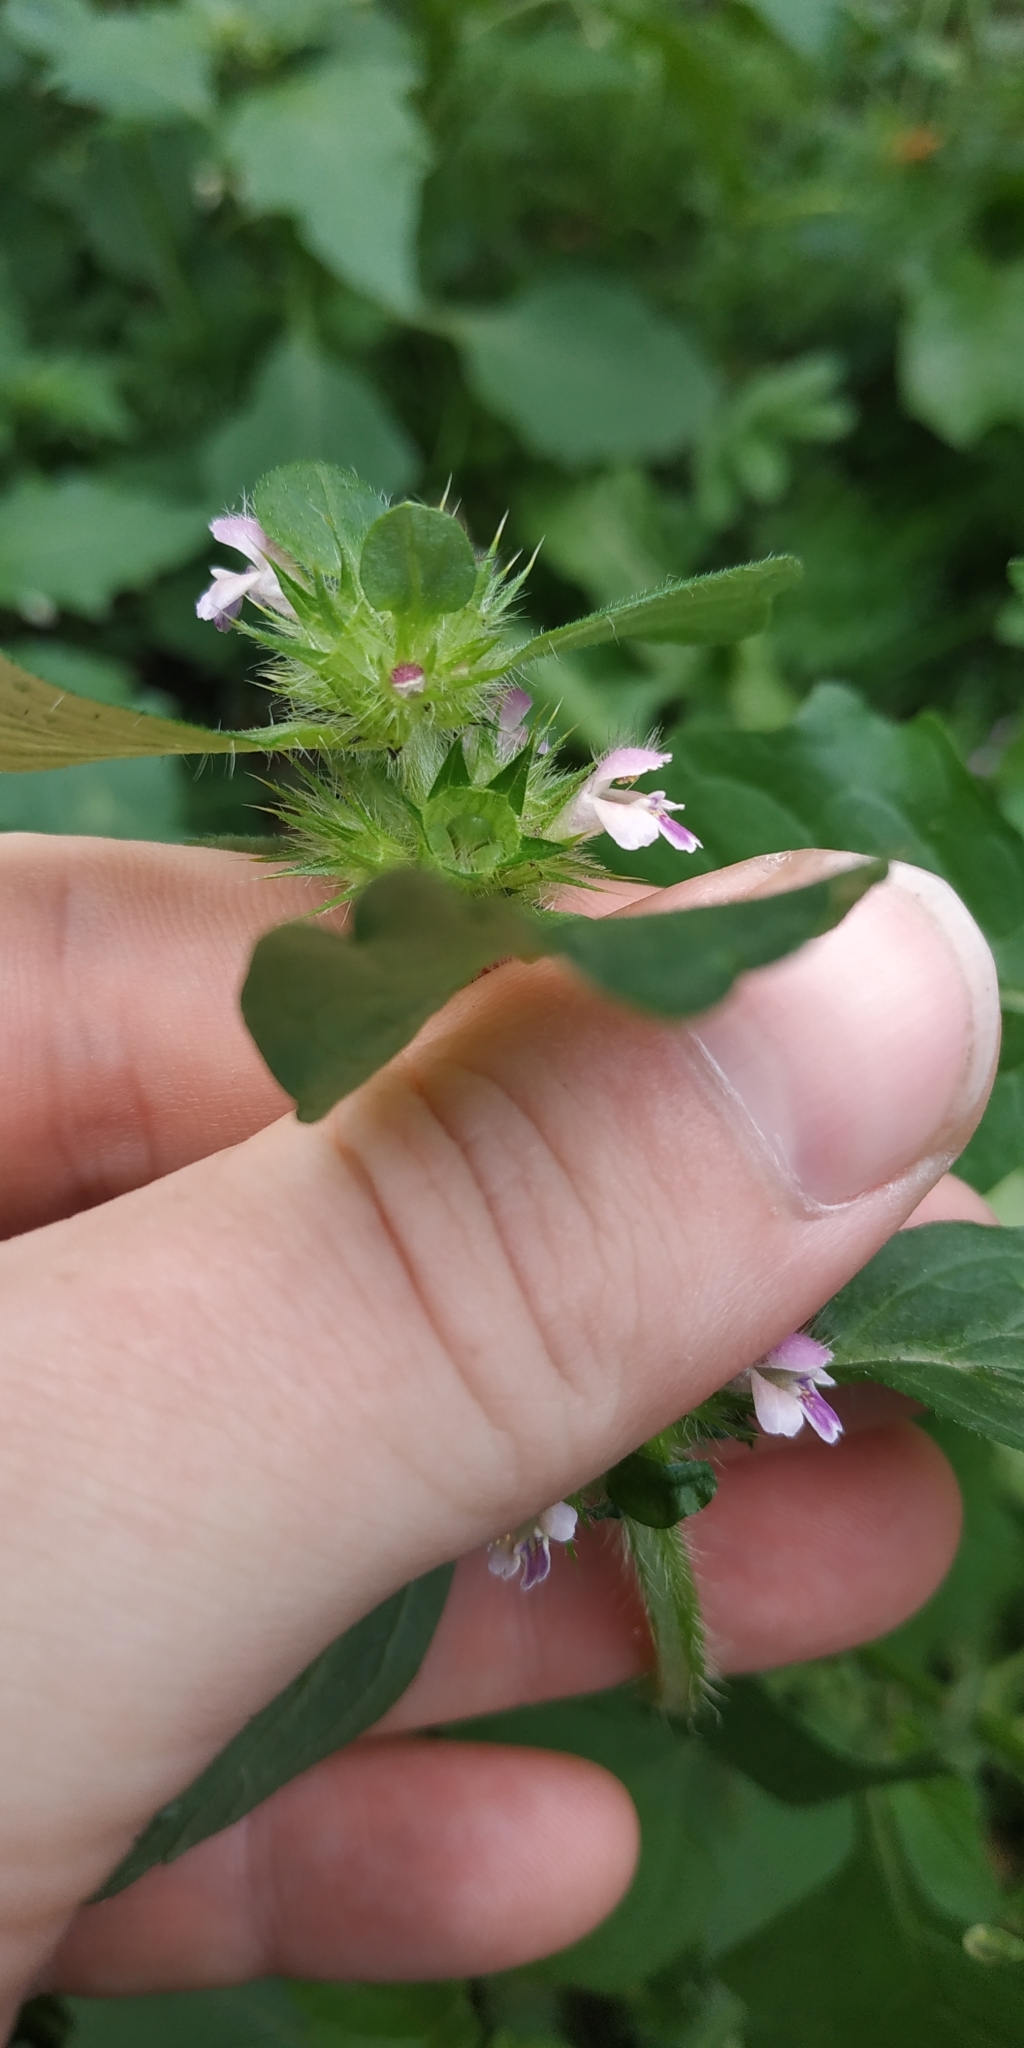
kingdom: Plantae
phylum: Tracheophyta
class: Magnoliopsida
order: Lamiales
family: Lamiaceae
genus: Galeopsis
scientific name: Galeopsis bifida
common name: Bifid hemp-nettle
